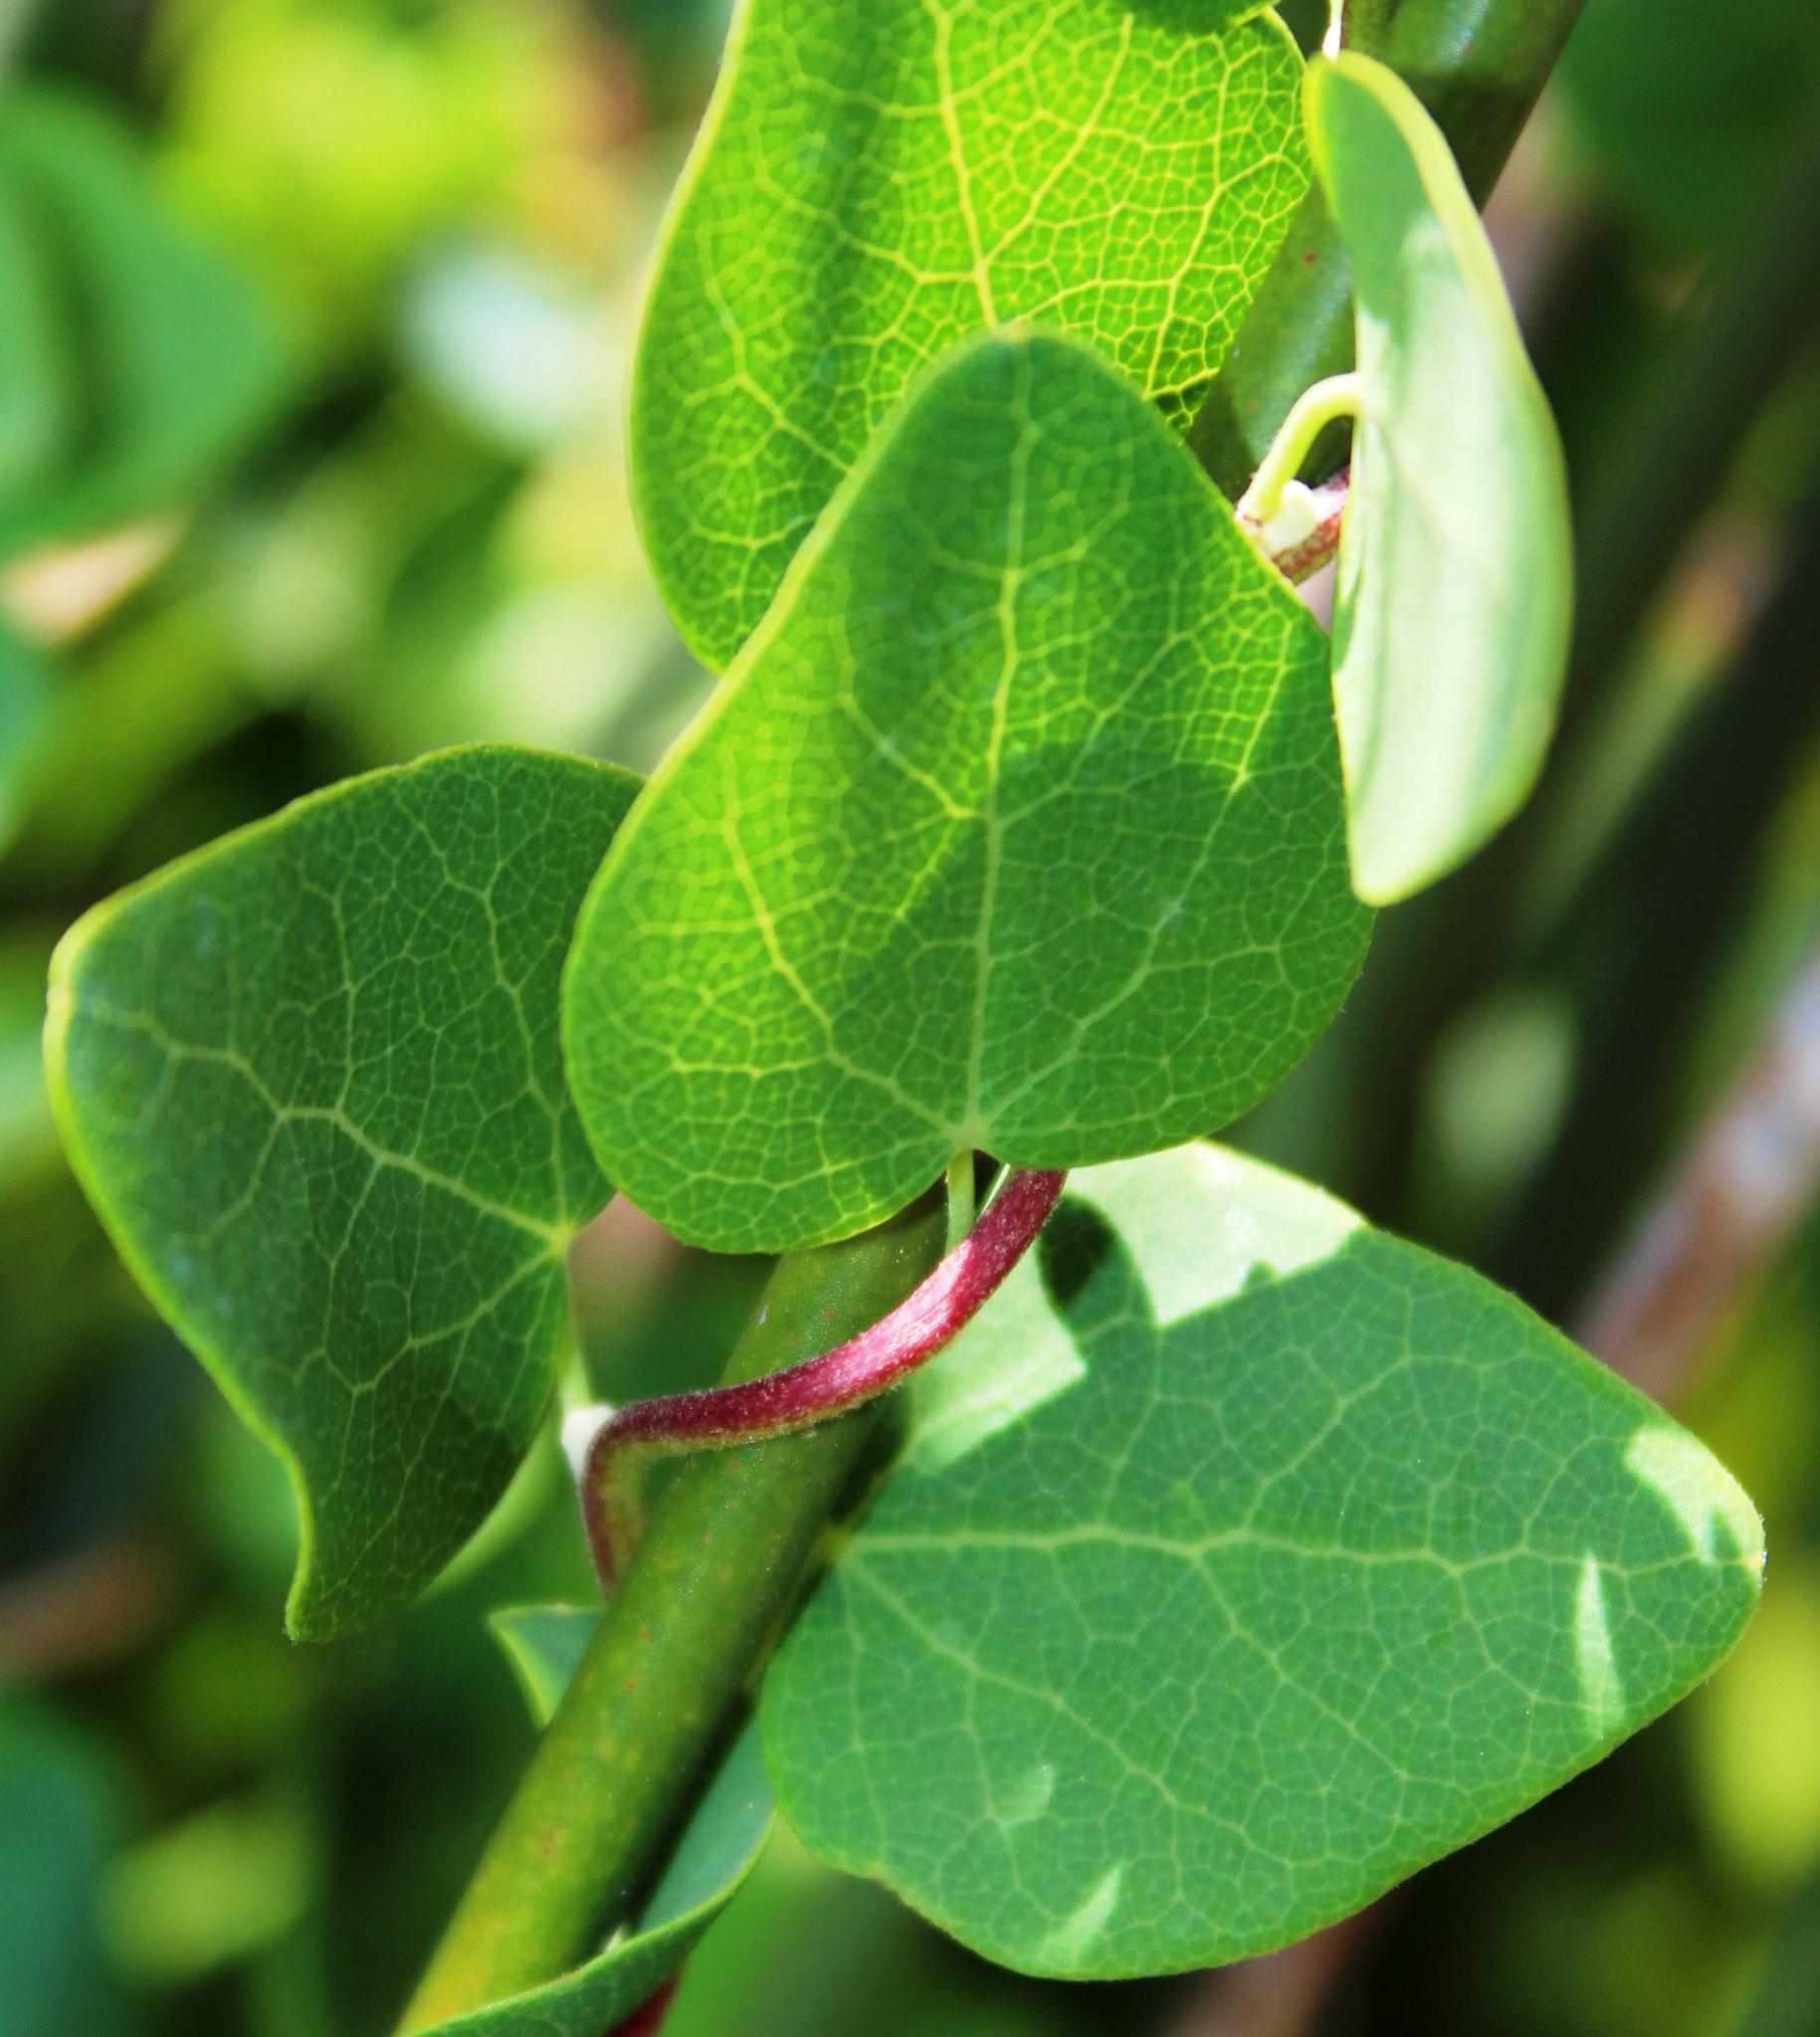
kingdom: Plantae
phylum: Tracheophyta
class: Magnoliopsida
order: Ranunculales
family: Menispermaceae
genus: Cissampelos
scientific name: Cissampelos capensis
